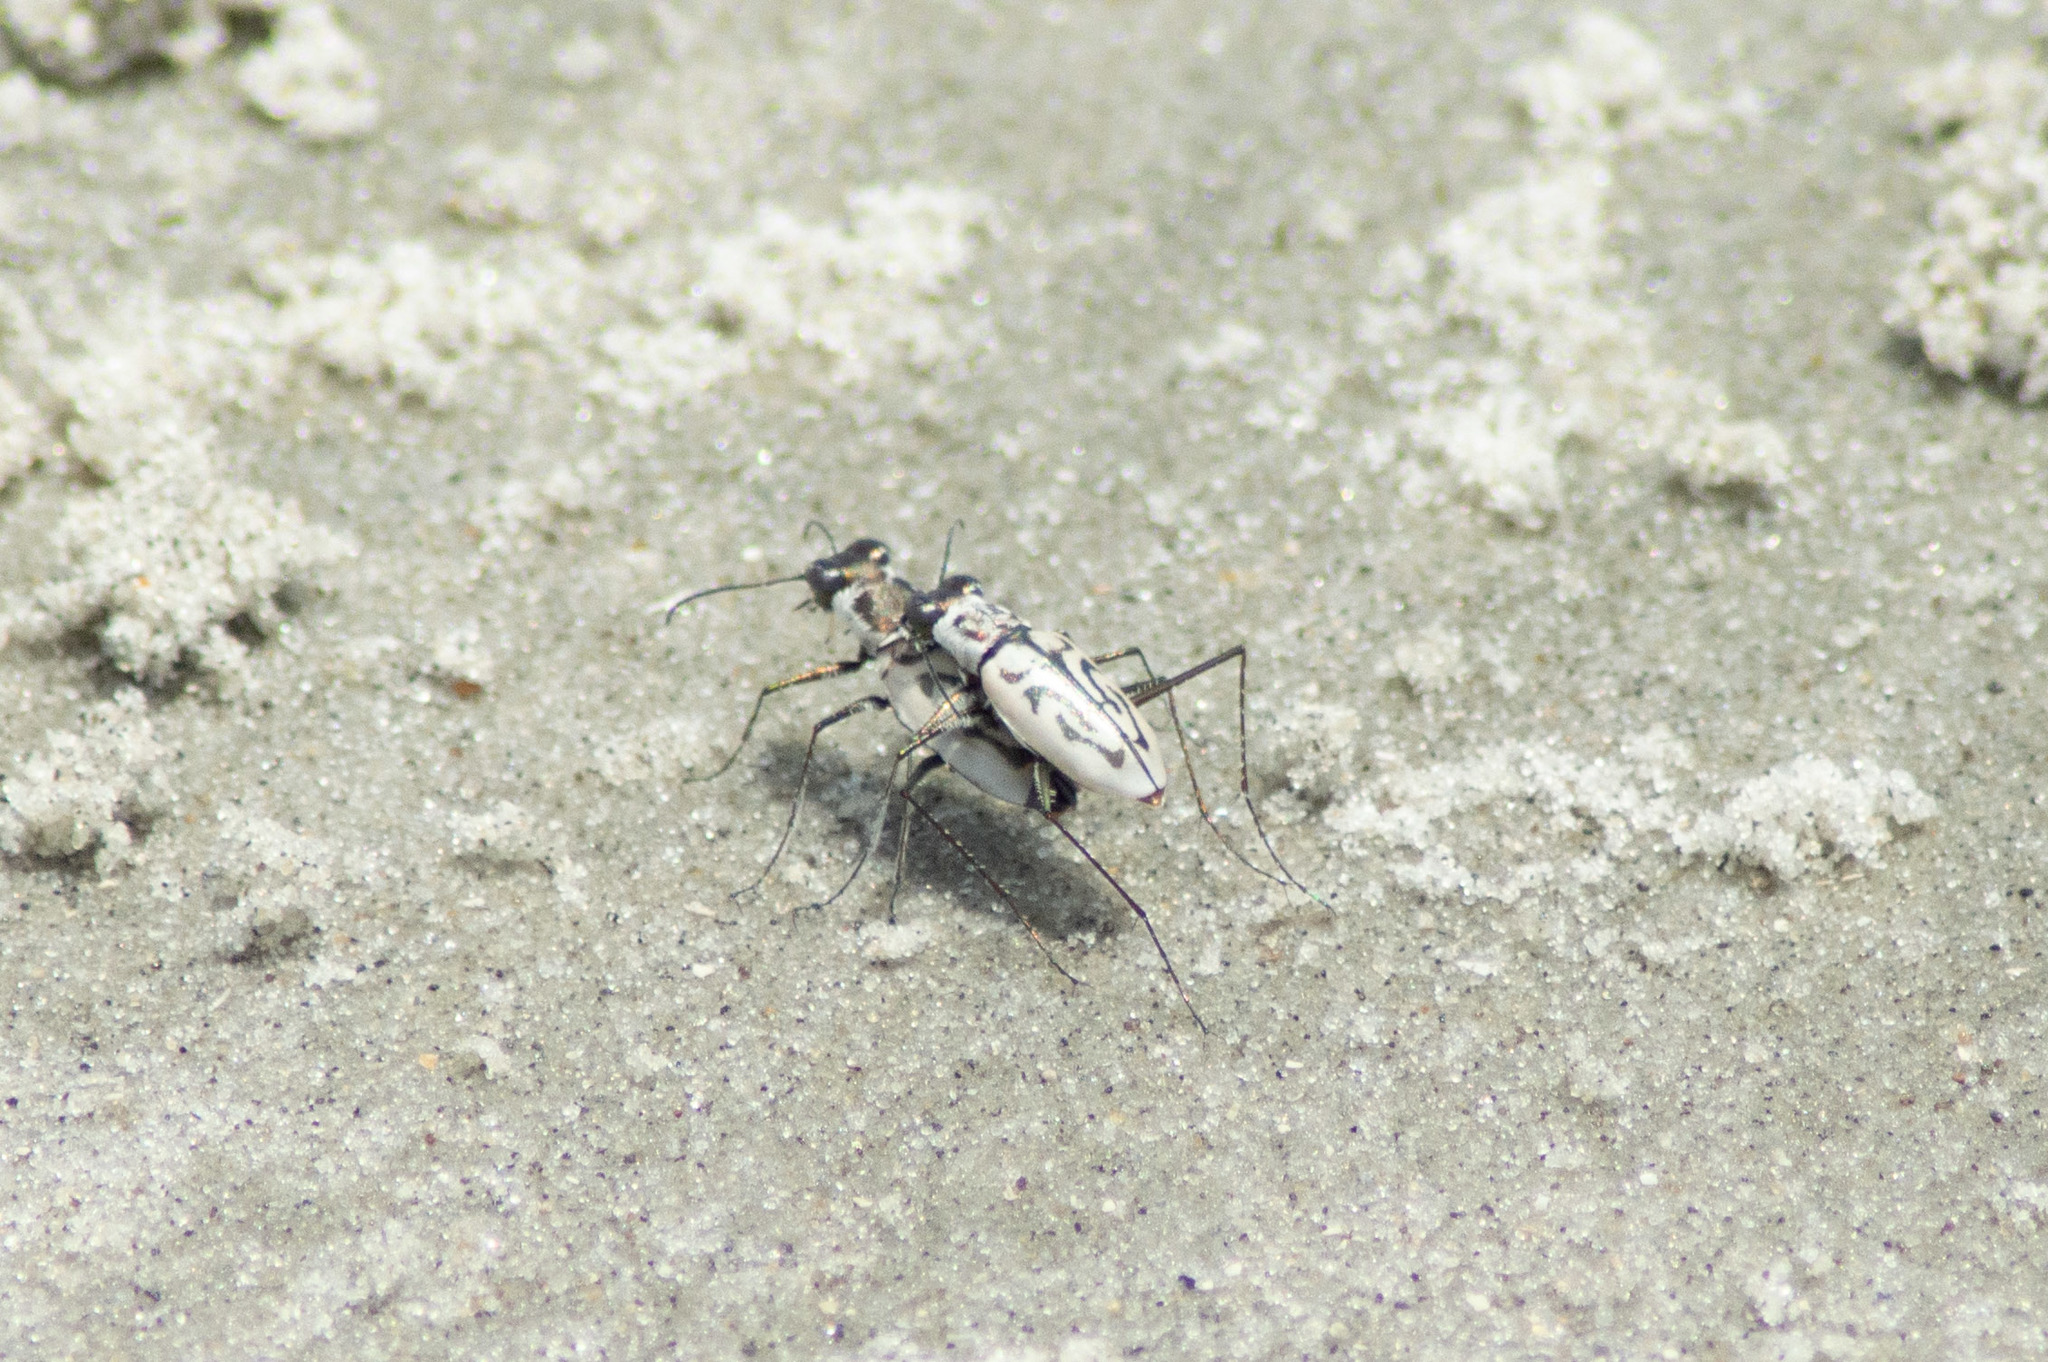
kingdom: Animalia
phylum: Arthropoda
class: Insecta
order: Coleoptera
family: Carabidae
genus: Habroscelimorpha
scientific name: Habroscelimorpha dorsalis
